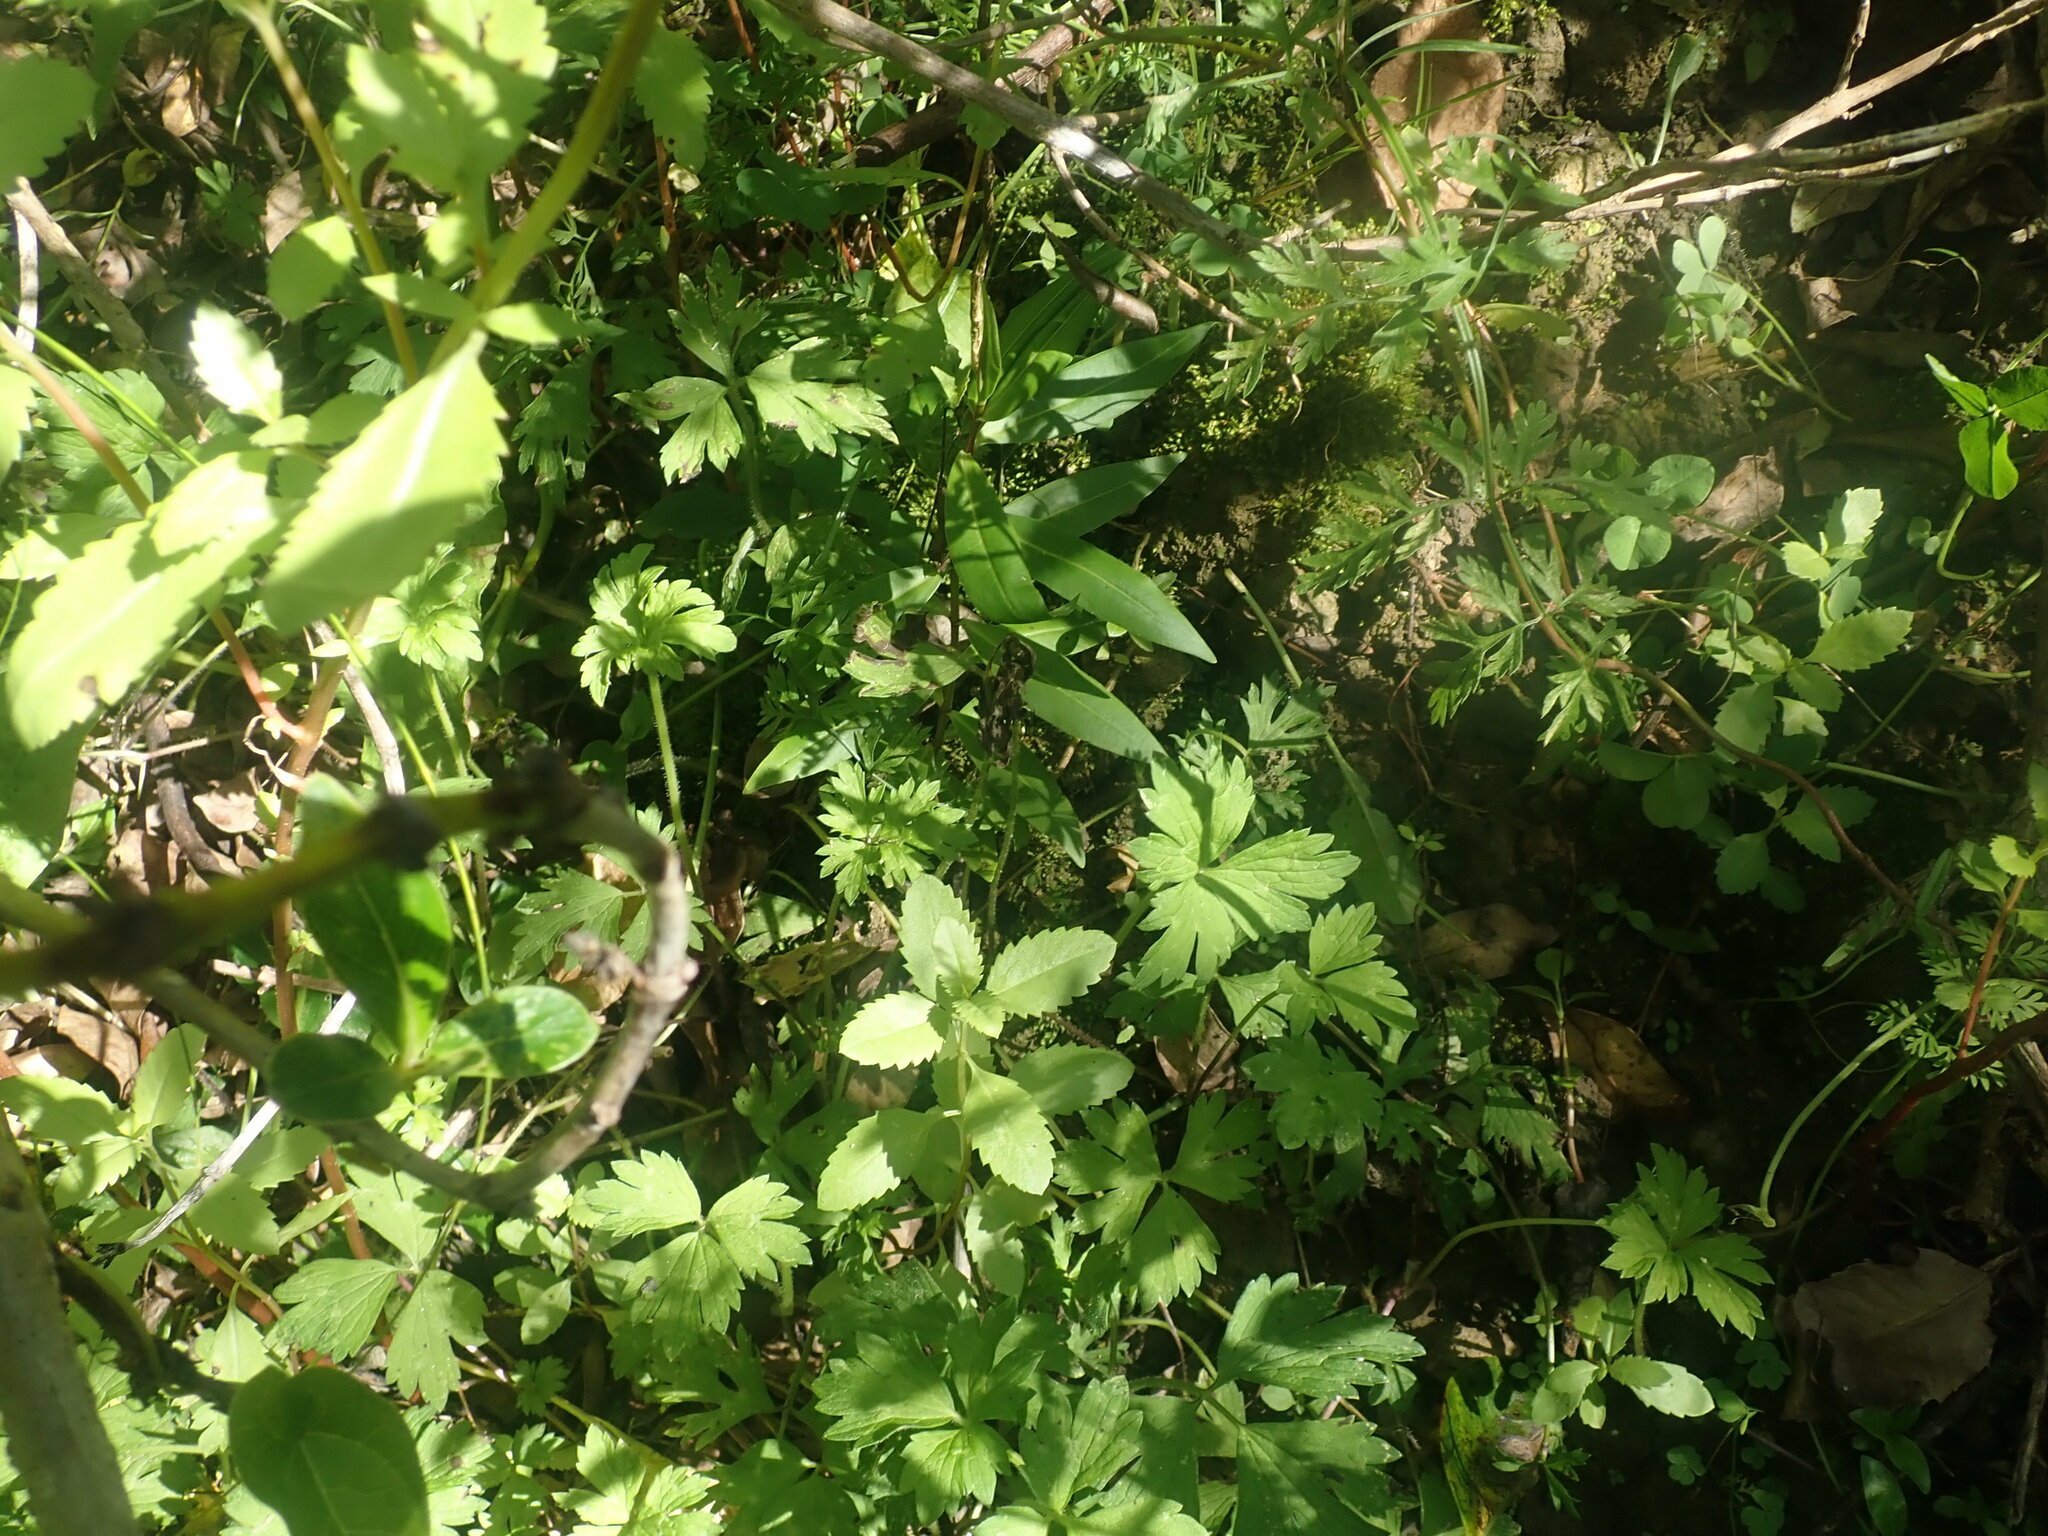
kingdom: Plantae
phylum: Tracheophyta
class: Magnoliopsida
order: Lamiales
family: Plantaginaceae
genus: Veronica
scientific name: Veronica stricta
